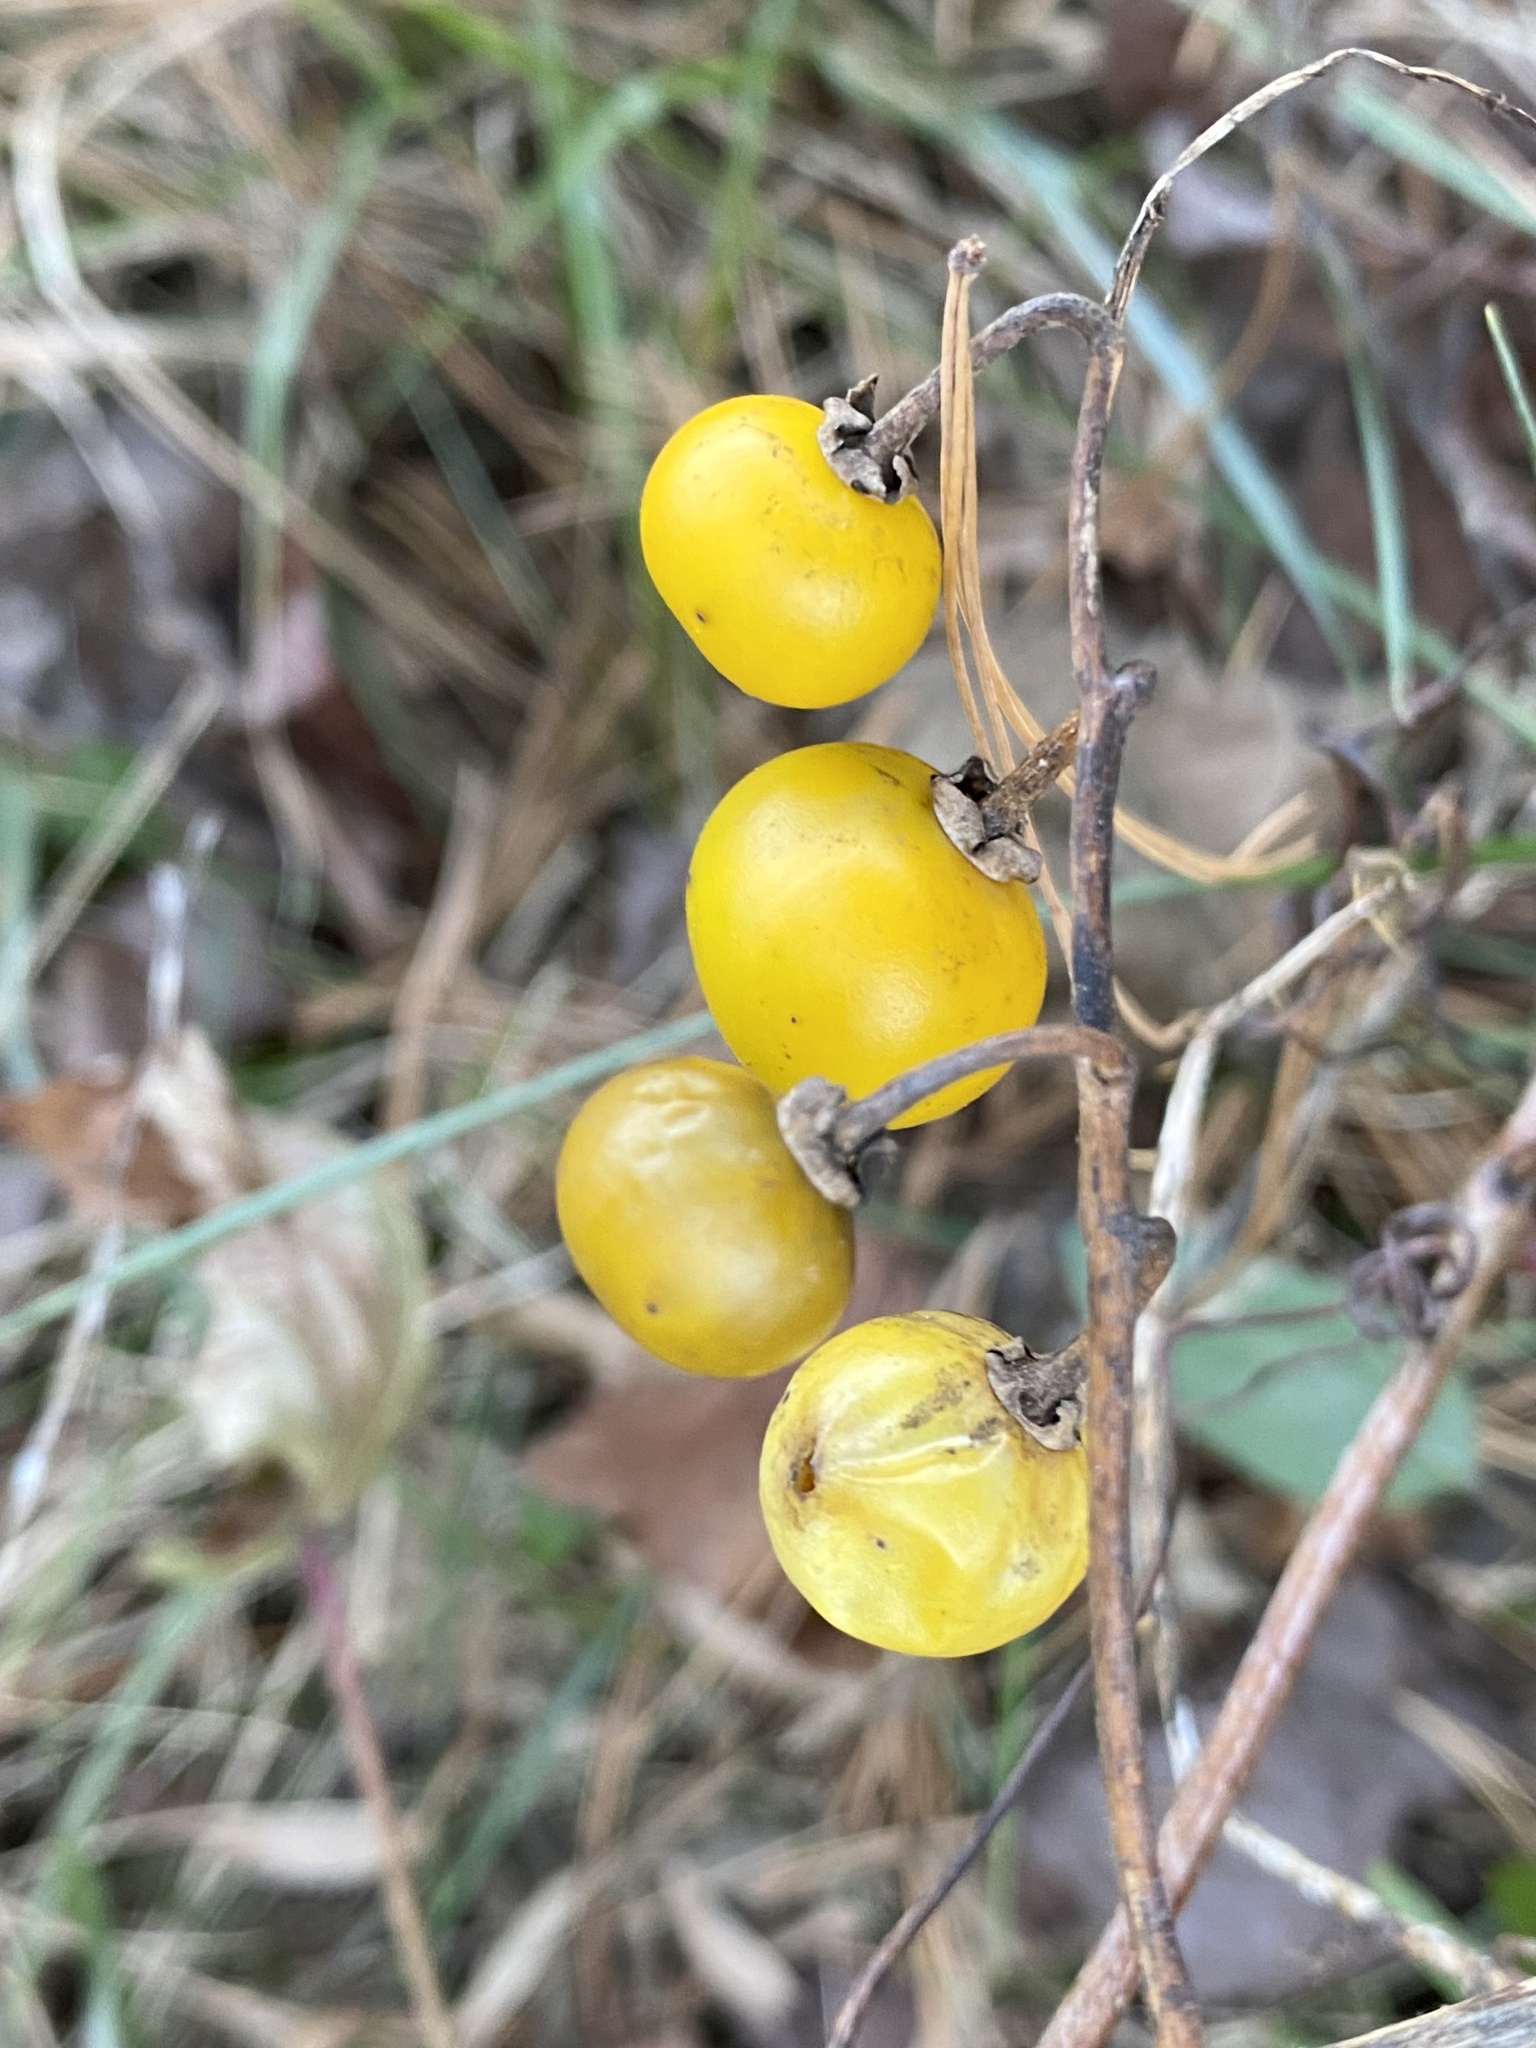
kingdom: Plantae
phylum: Tracheophyta
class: Magnoliopsida
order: Solanales
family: Solanaceae
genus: Solanum
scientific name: Solanum carolinense
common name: Horse-nettle
